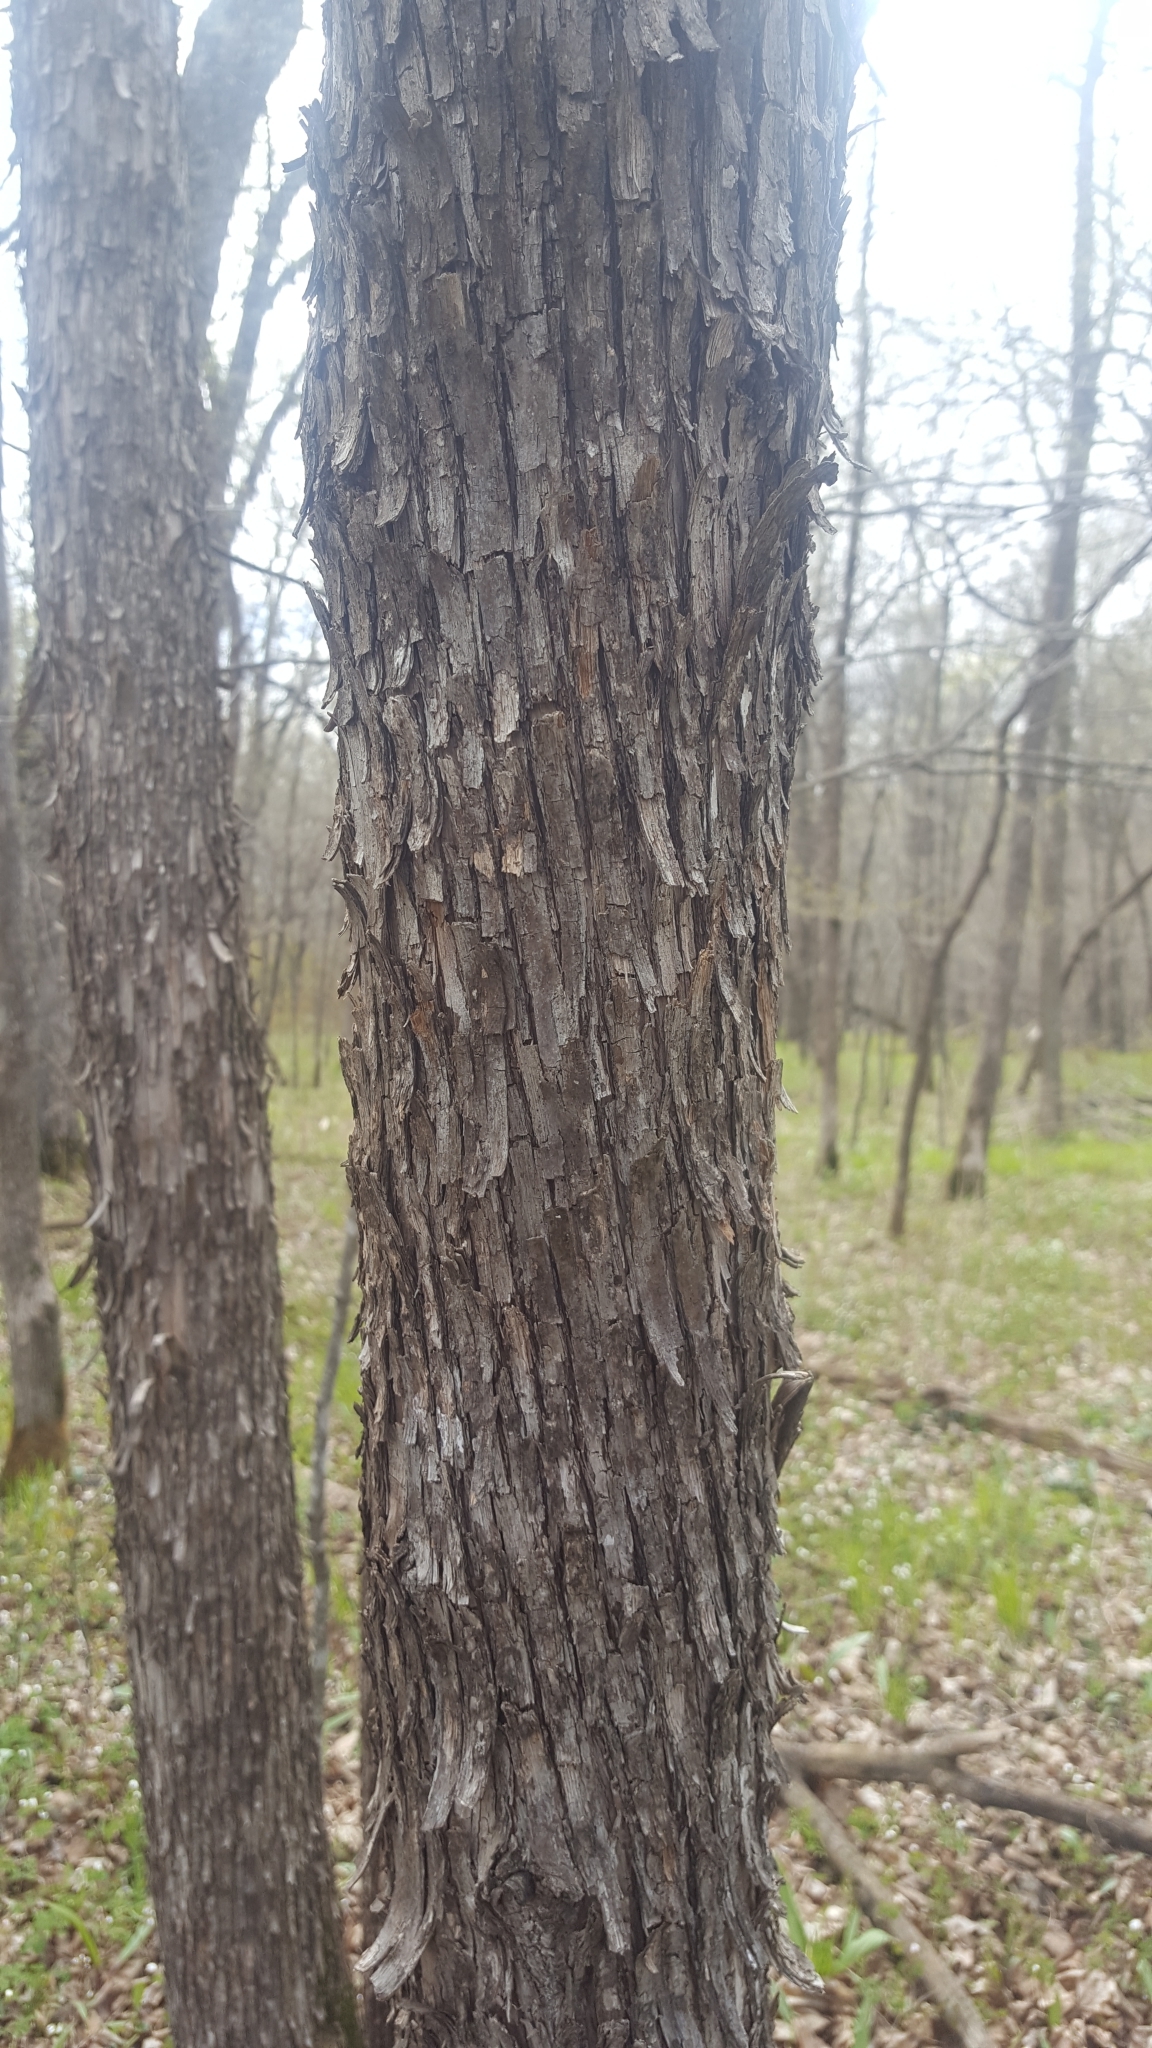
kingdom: Plantae
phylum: Tracheophyta
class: Magnoliopsida
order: Fagales
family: Betulaceae
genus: Ostrya
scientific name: Ostrya virginiana
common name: Ironwood
